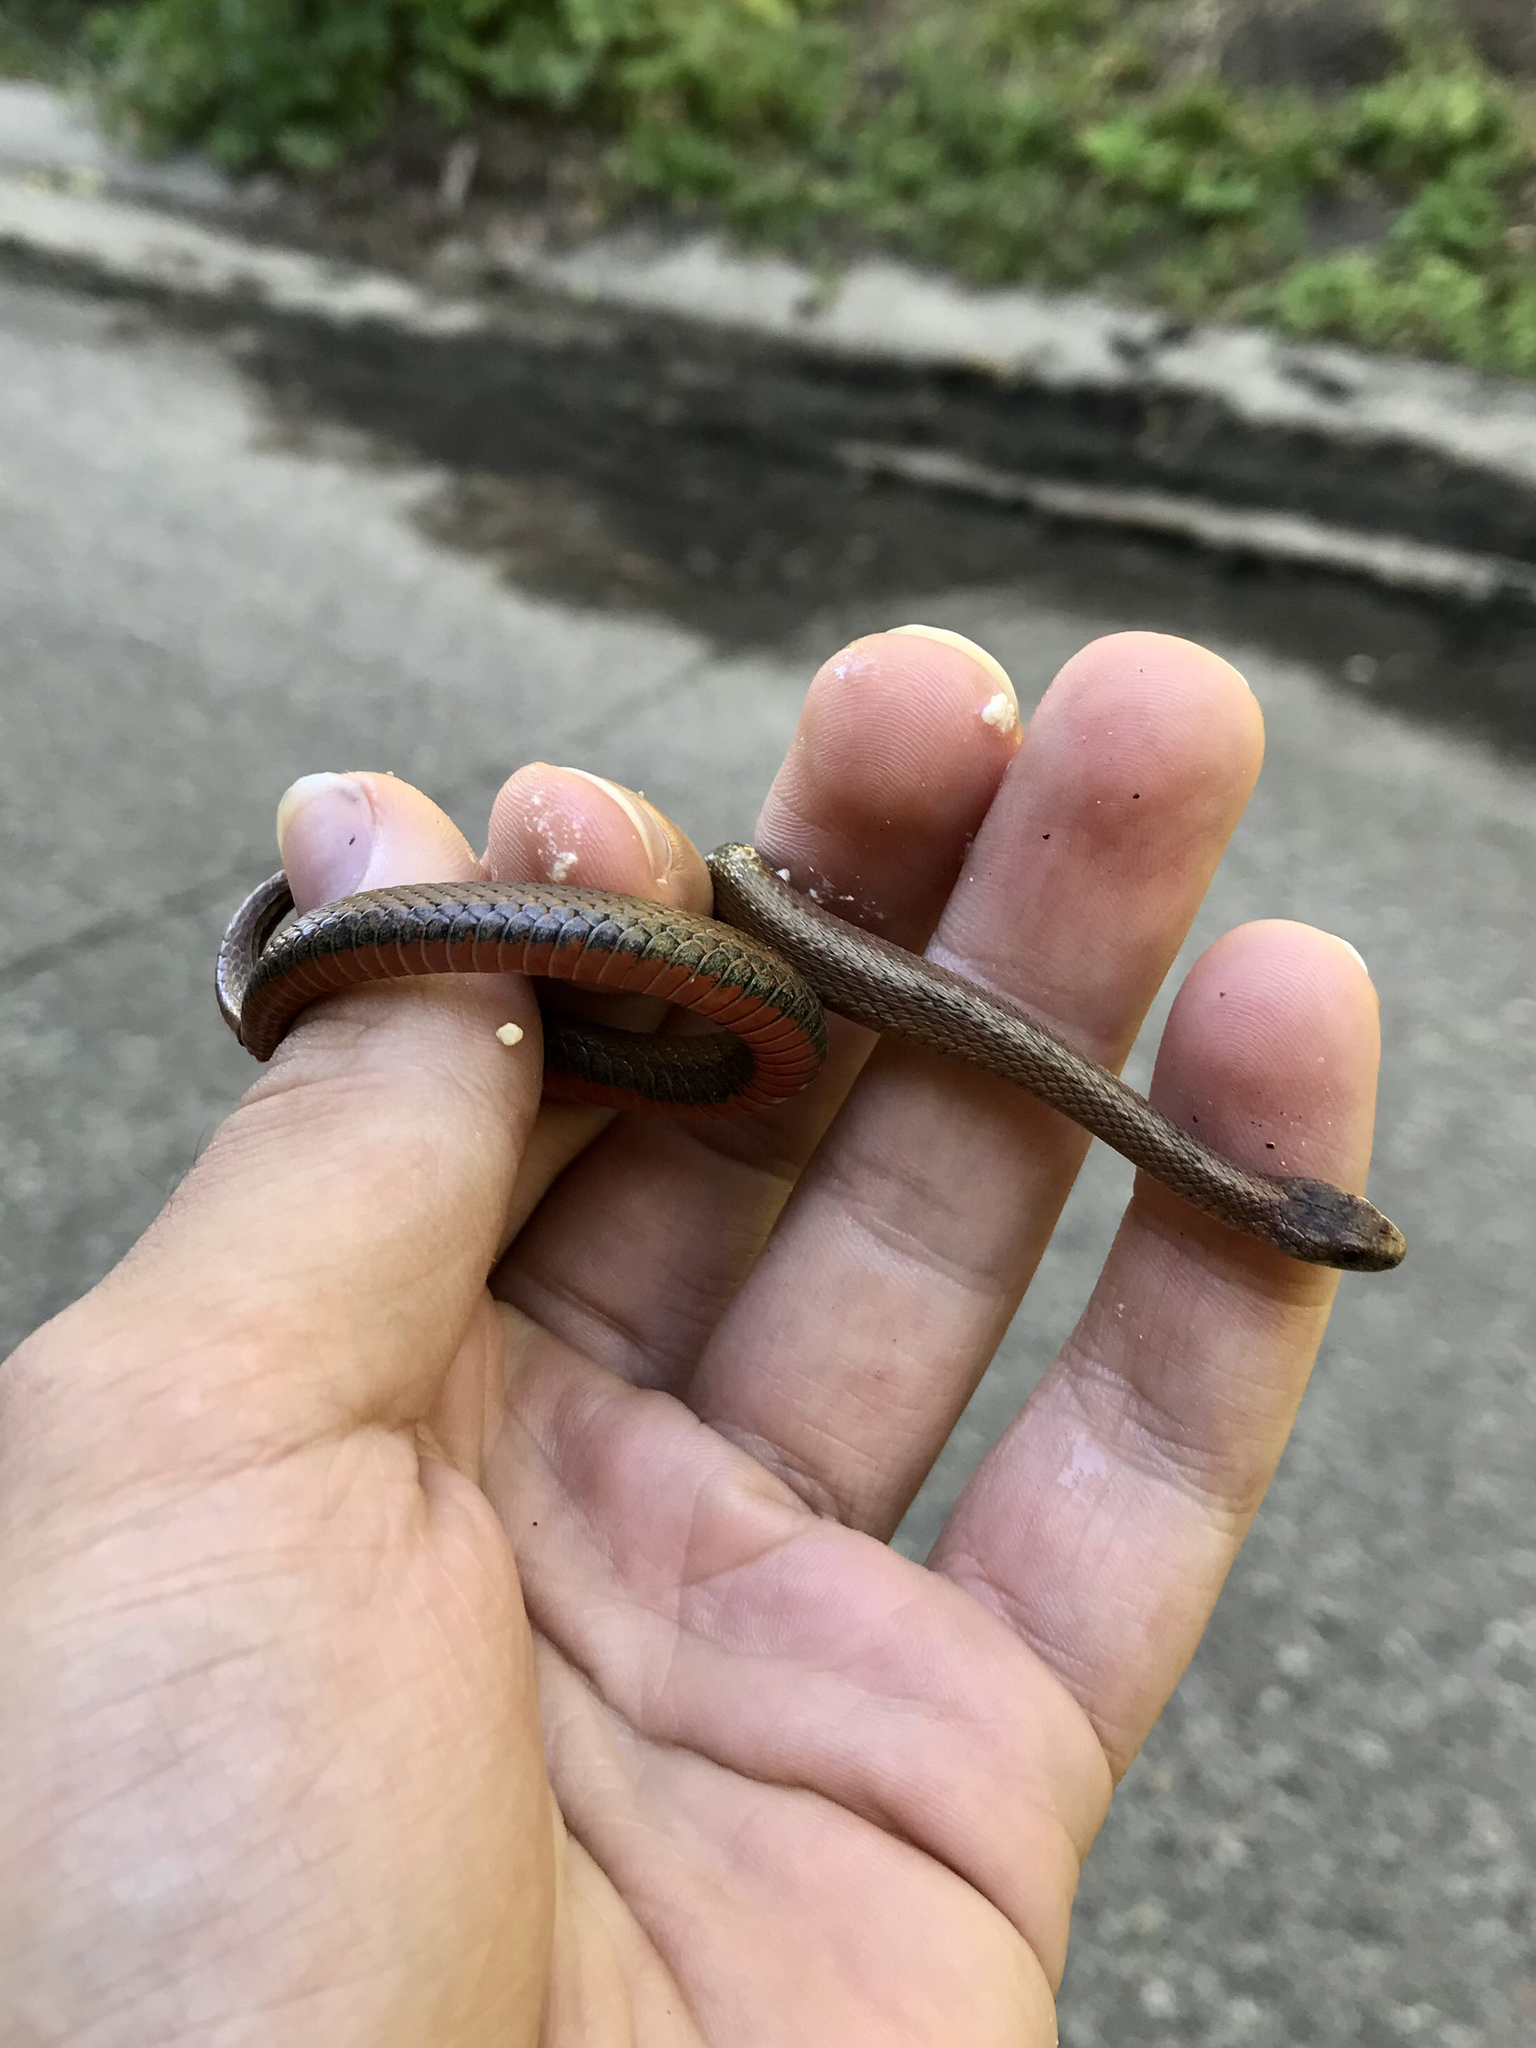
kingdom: Animalia
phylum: Chordata
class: Squamata
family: Colubridae
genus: Storeria
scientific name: Storeria occipitomaculata
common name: Redbelly snake
